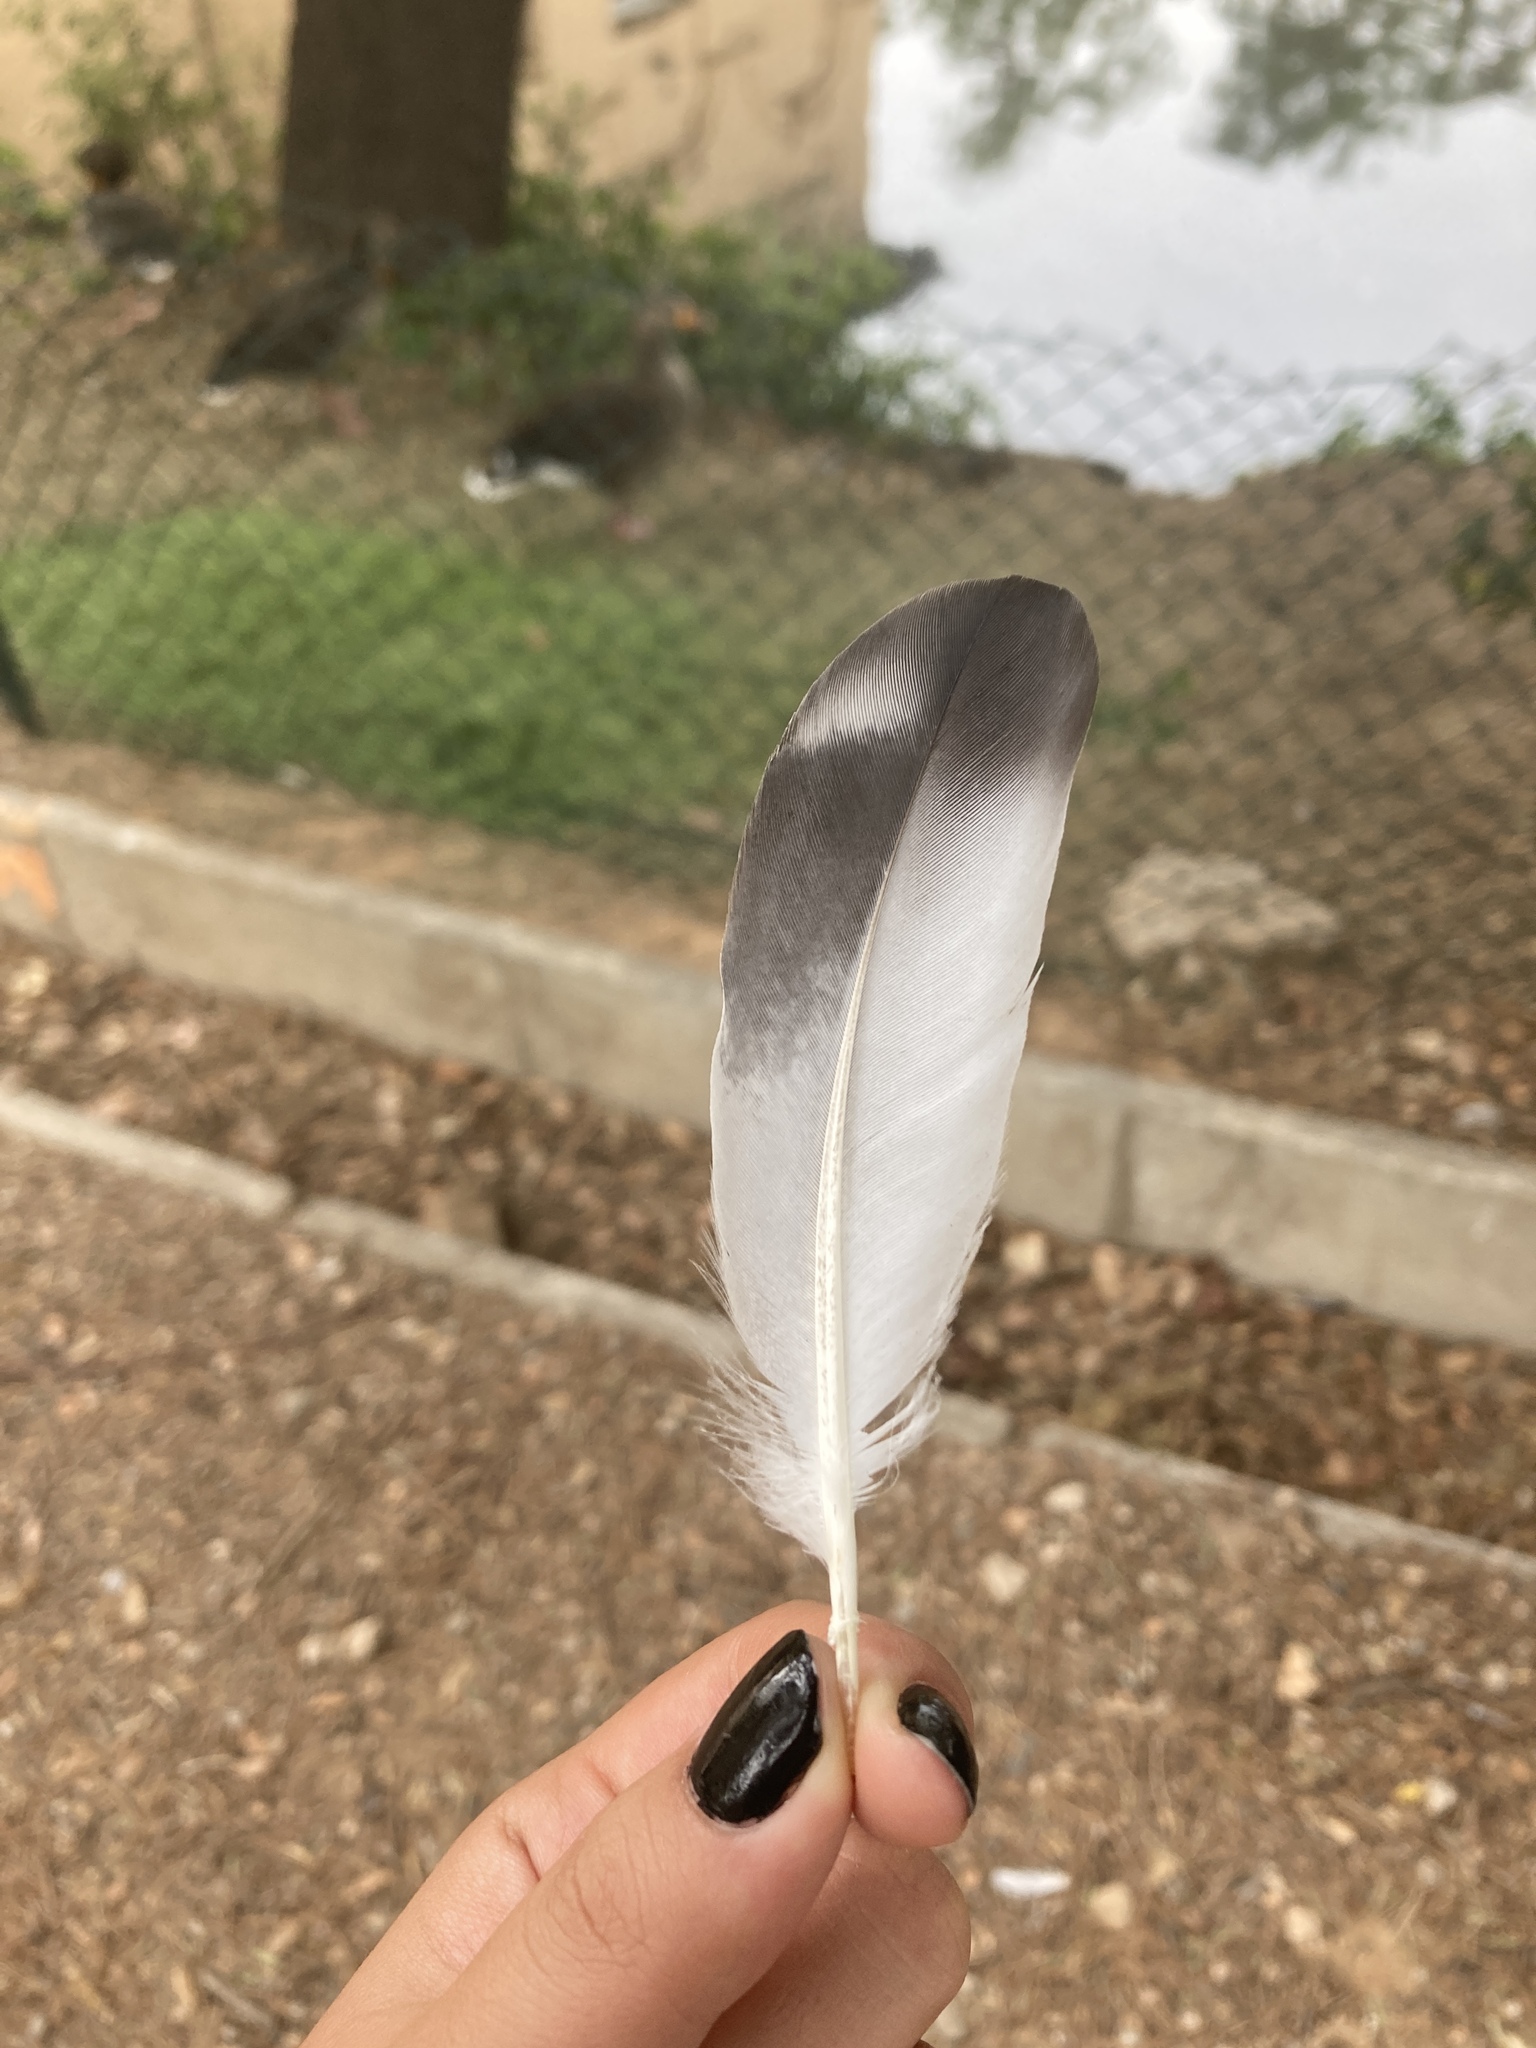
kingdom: Animalia
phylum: Chordata
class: Aves
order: Columbiformes
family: Columbidae
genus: Columba
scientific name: Columba livia
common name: Rock pigeon
